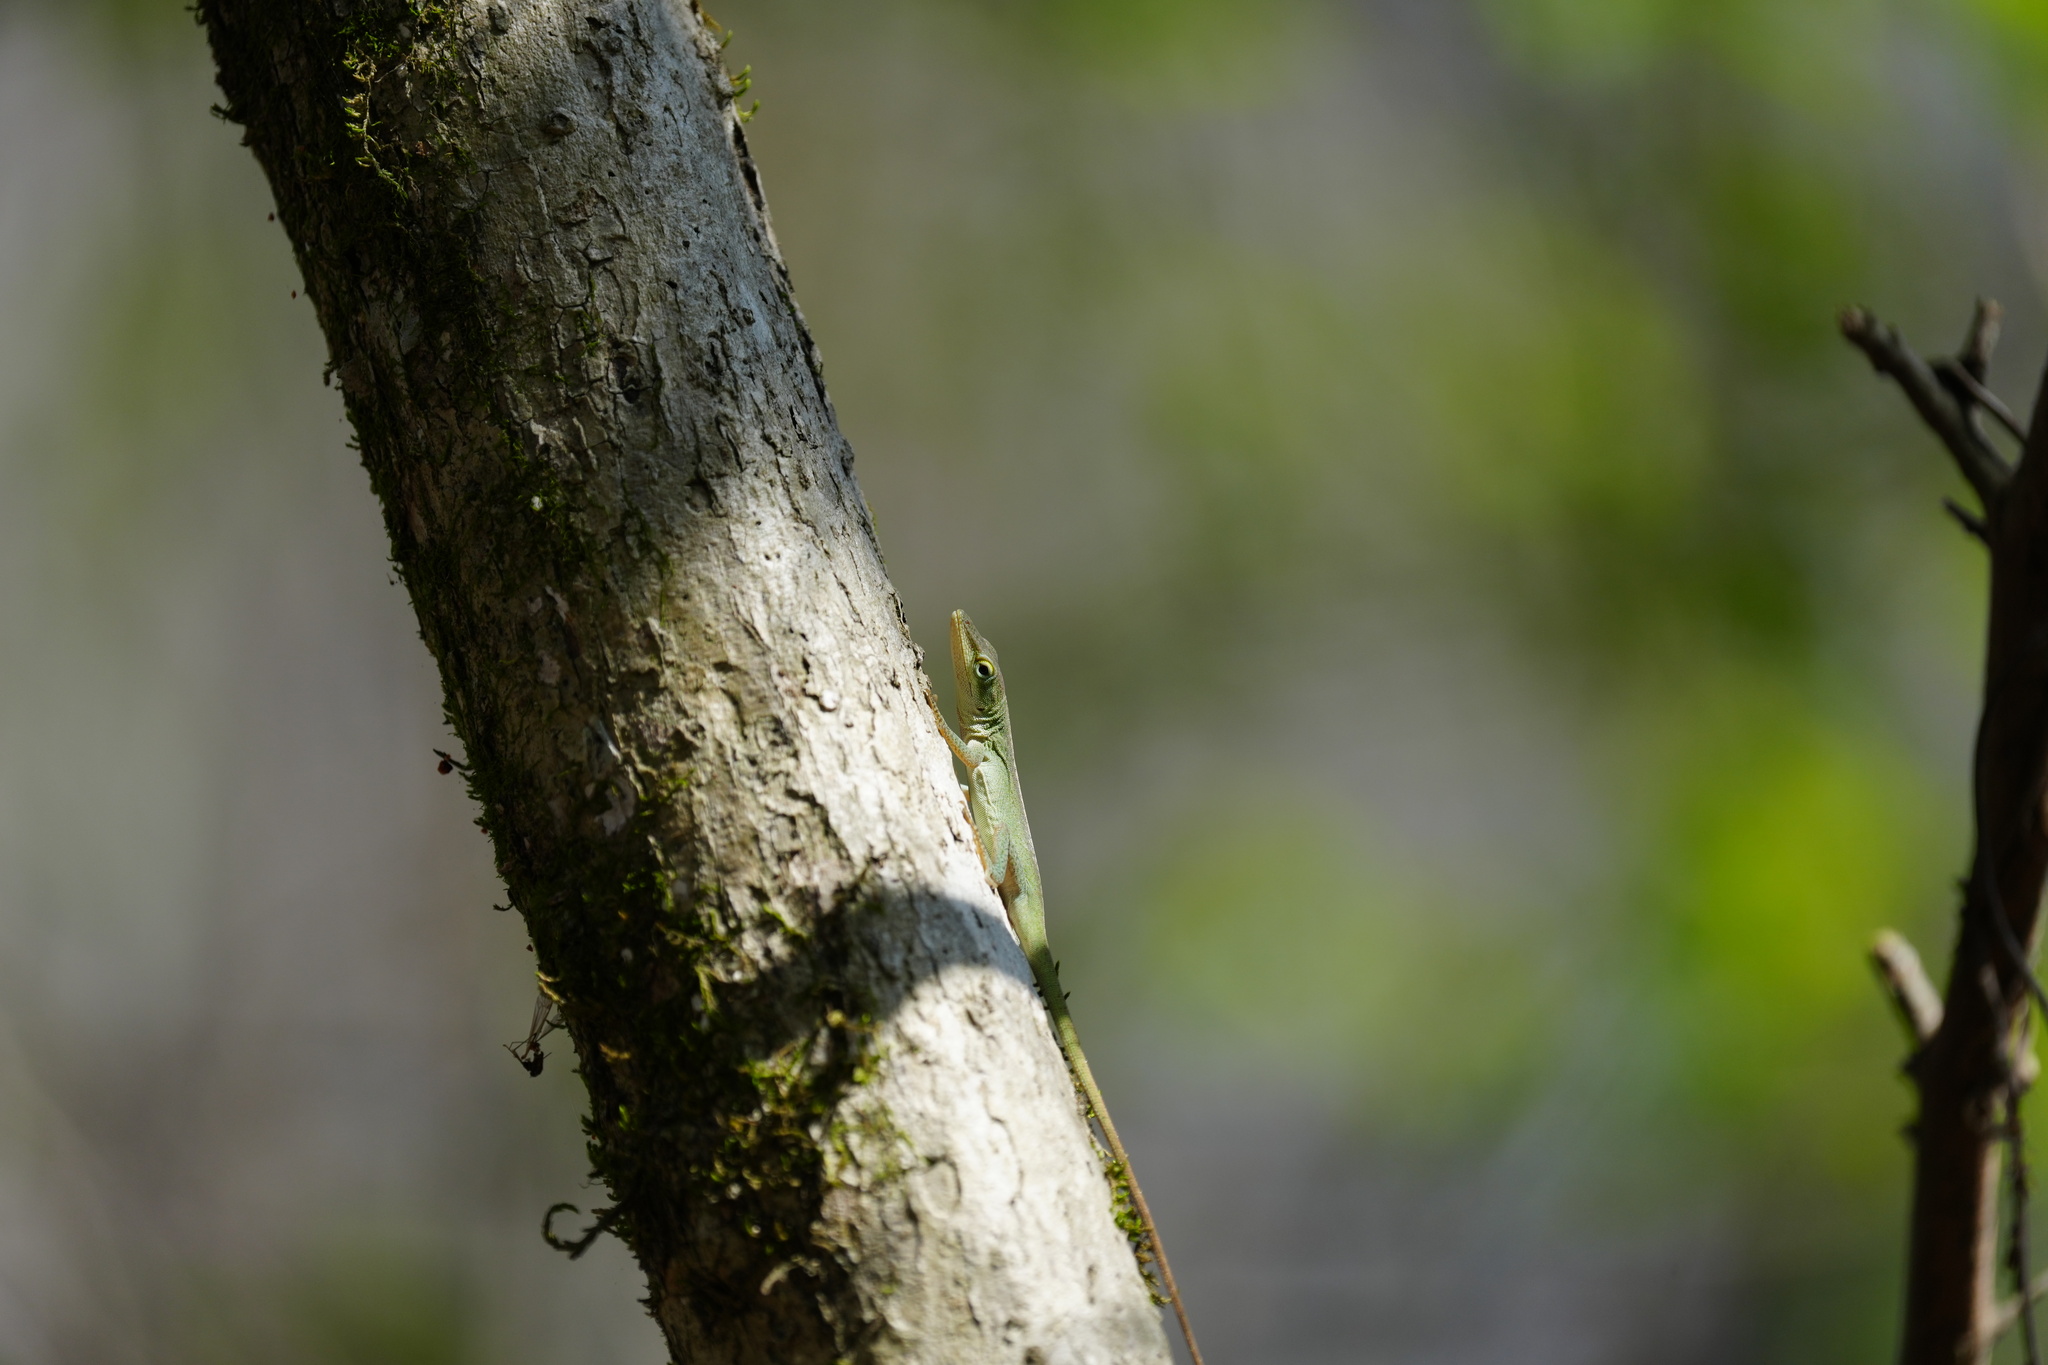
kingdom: Animalia
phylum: Chordata
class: Squamata
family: Dactyloidae
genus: Anolis
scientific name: Anolis carolinensis
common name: Green anole
